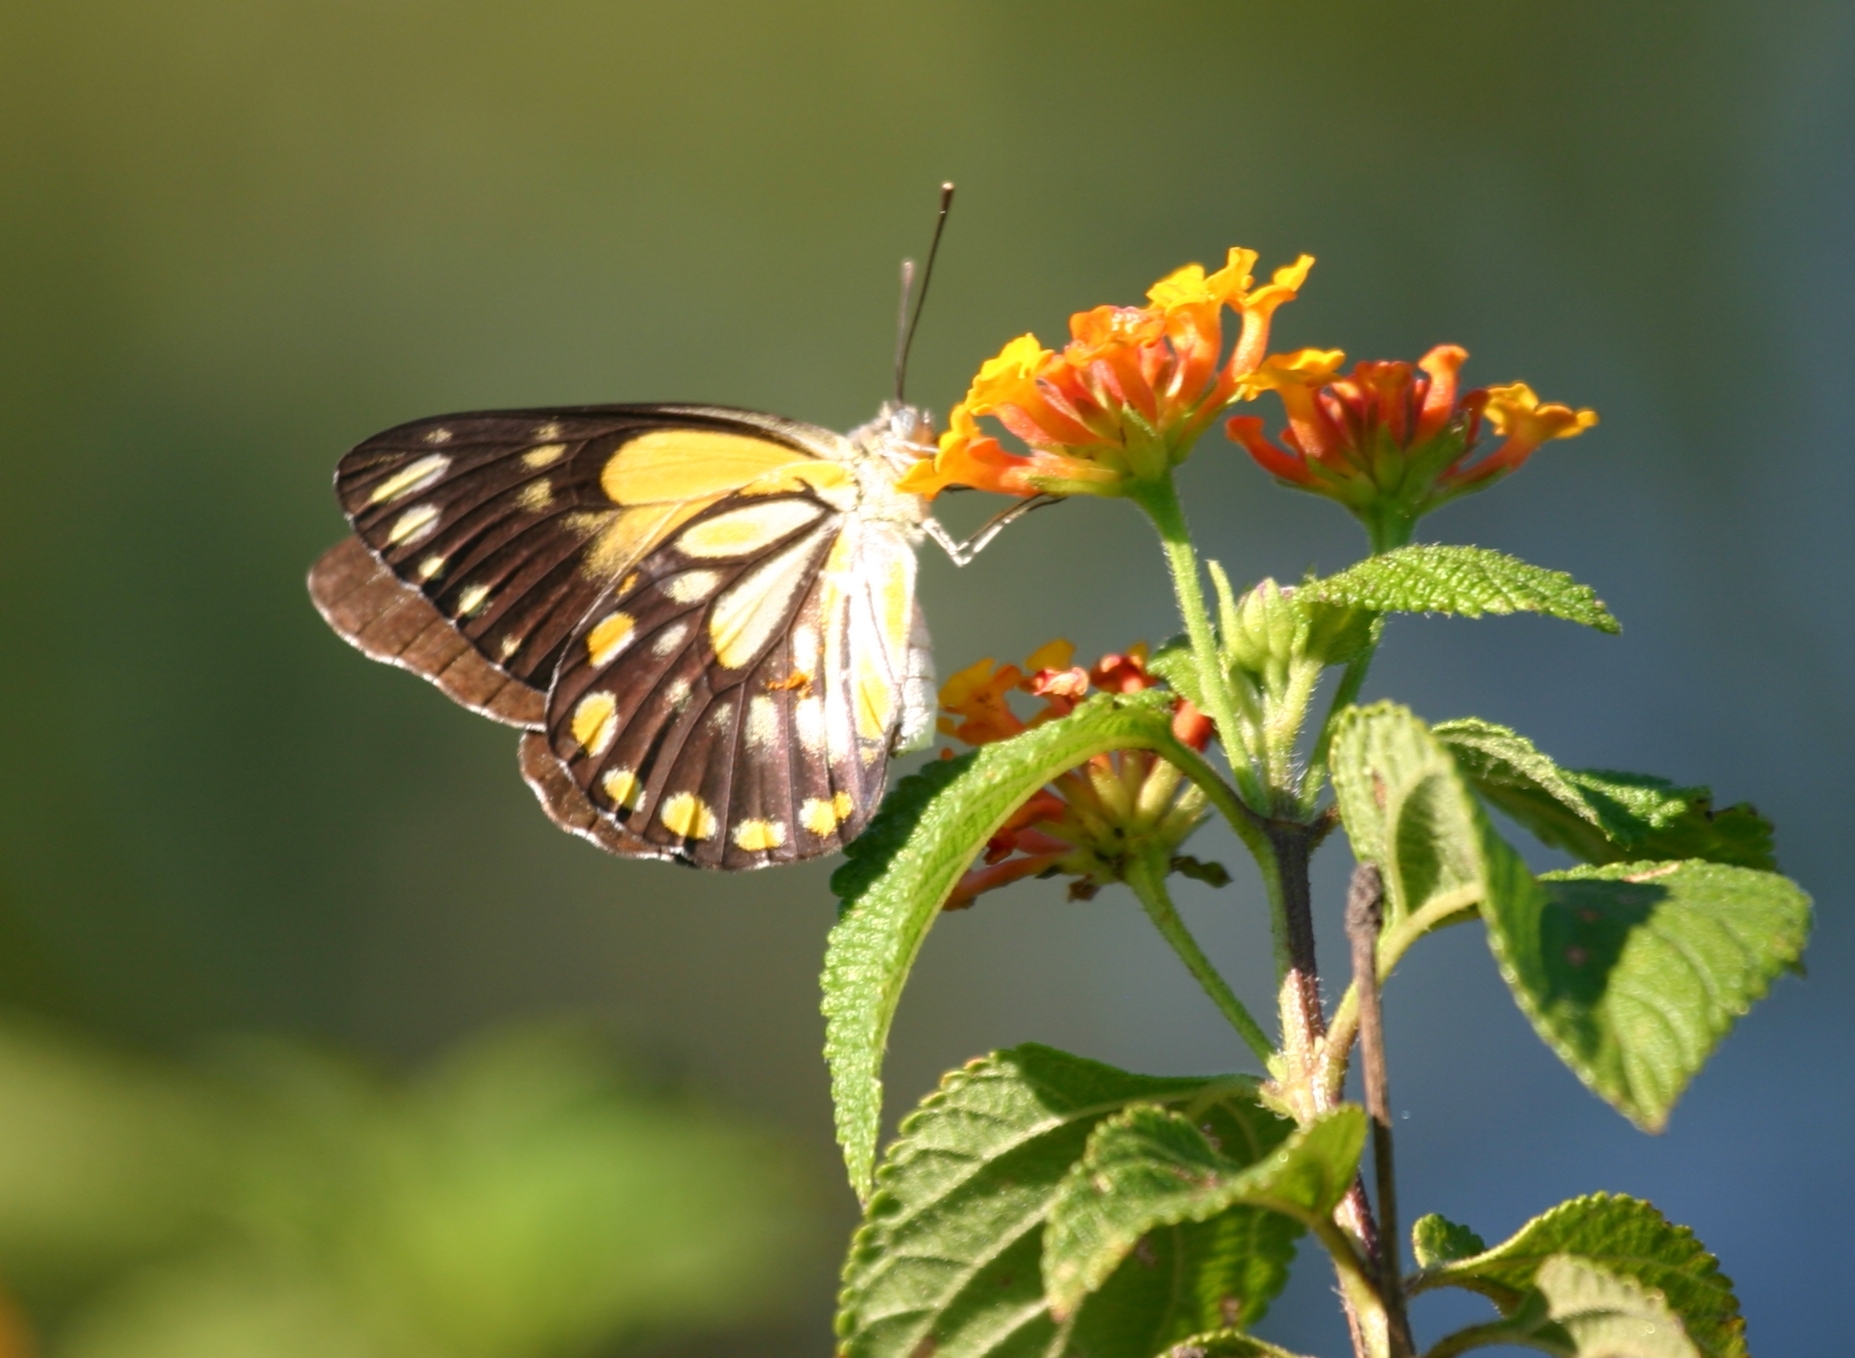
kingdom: Animalia
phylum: Arthropoda
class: Insecta
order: Lepidoptera
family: Pieridae
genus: Belenois
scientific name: Belenois java
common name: Caper white
